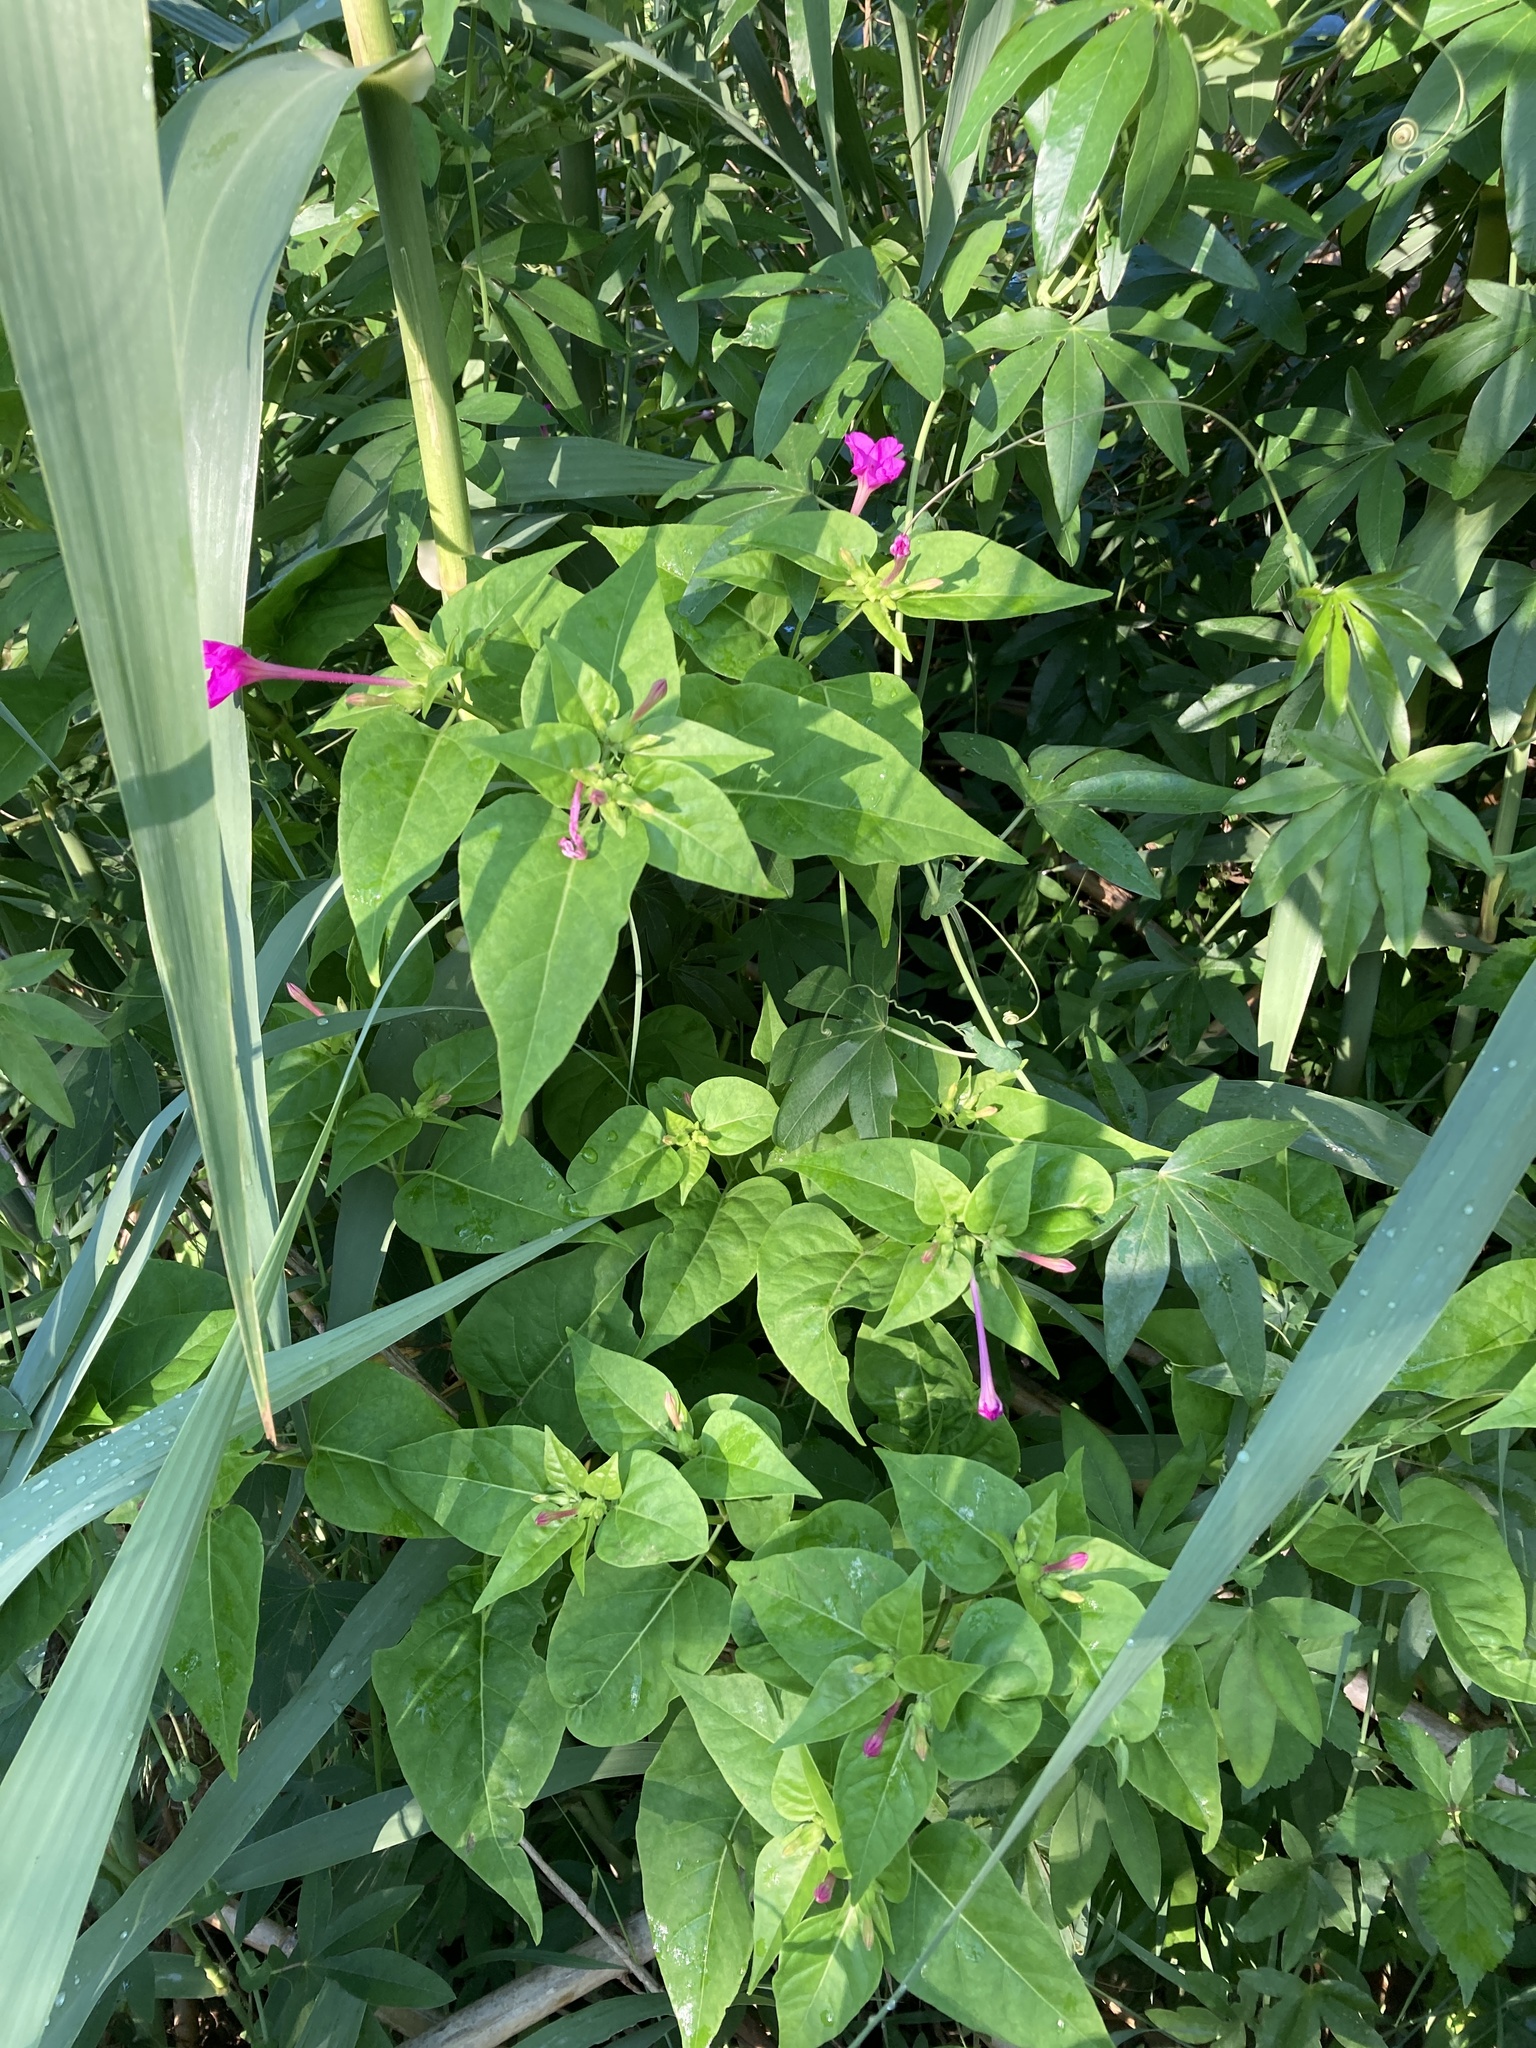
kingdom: Plantae
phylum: Tracheophyta
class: Magnoliopsida
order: Caryophyllales
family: Nyctaginaceae
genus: Mirabilis
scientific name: Mirabilis jalapa
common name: Marvel-of-peru
